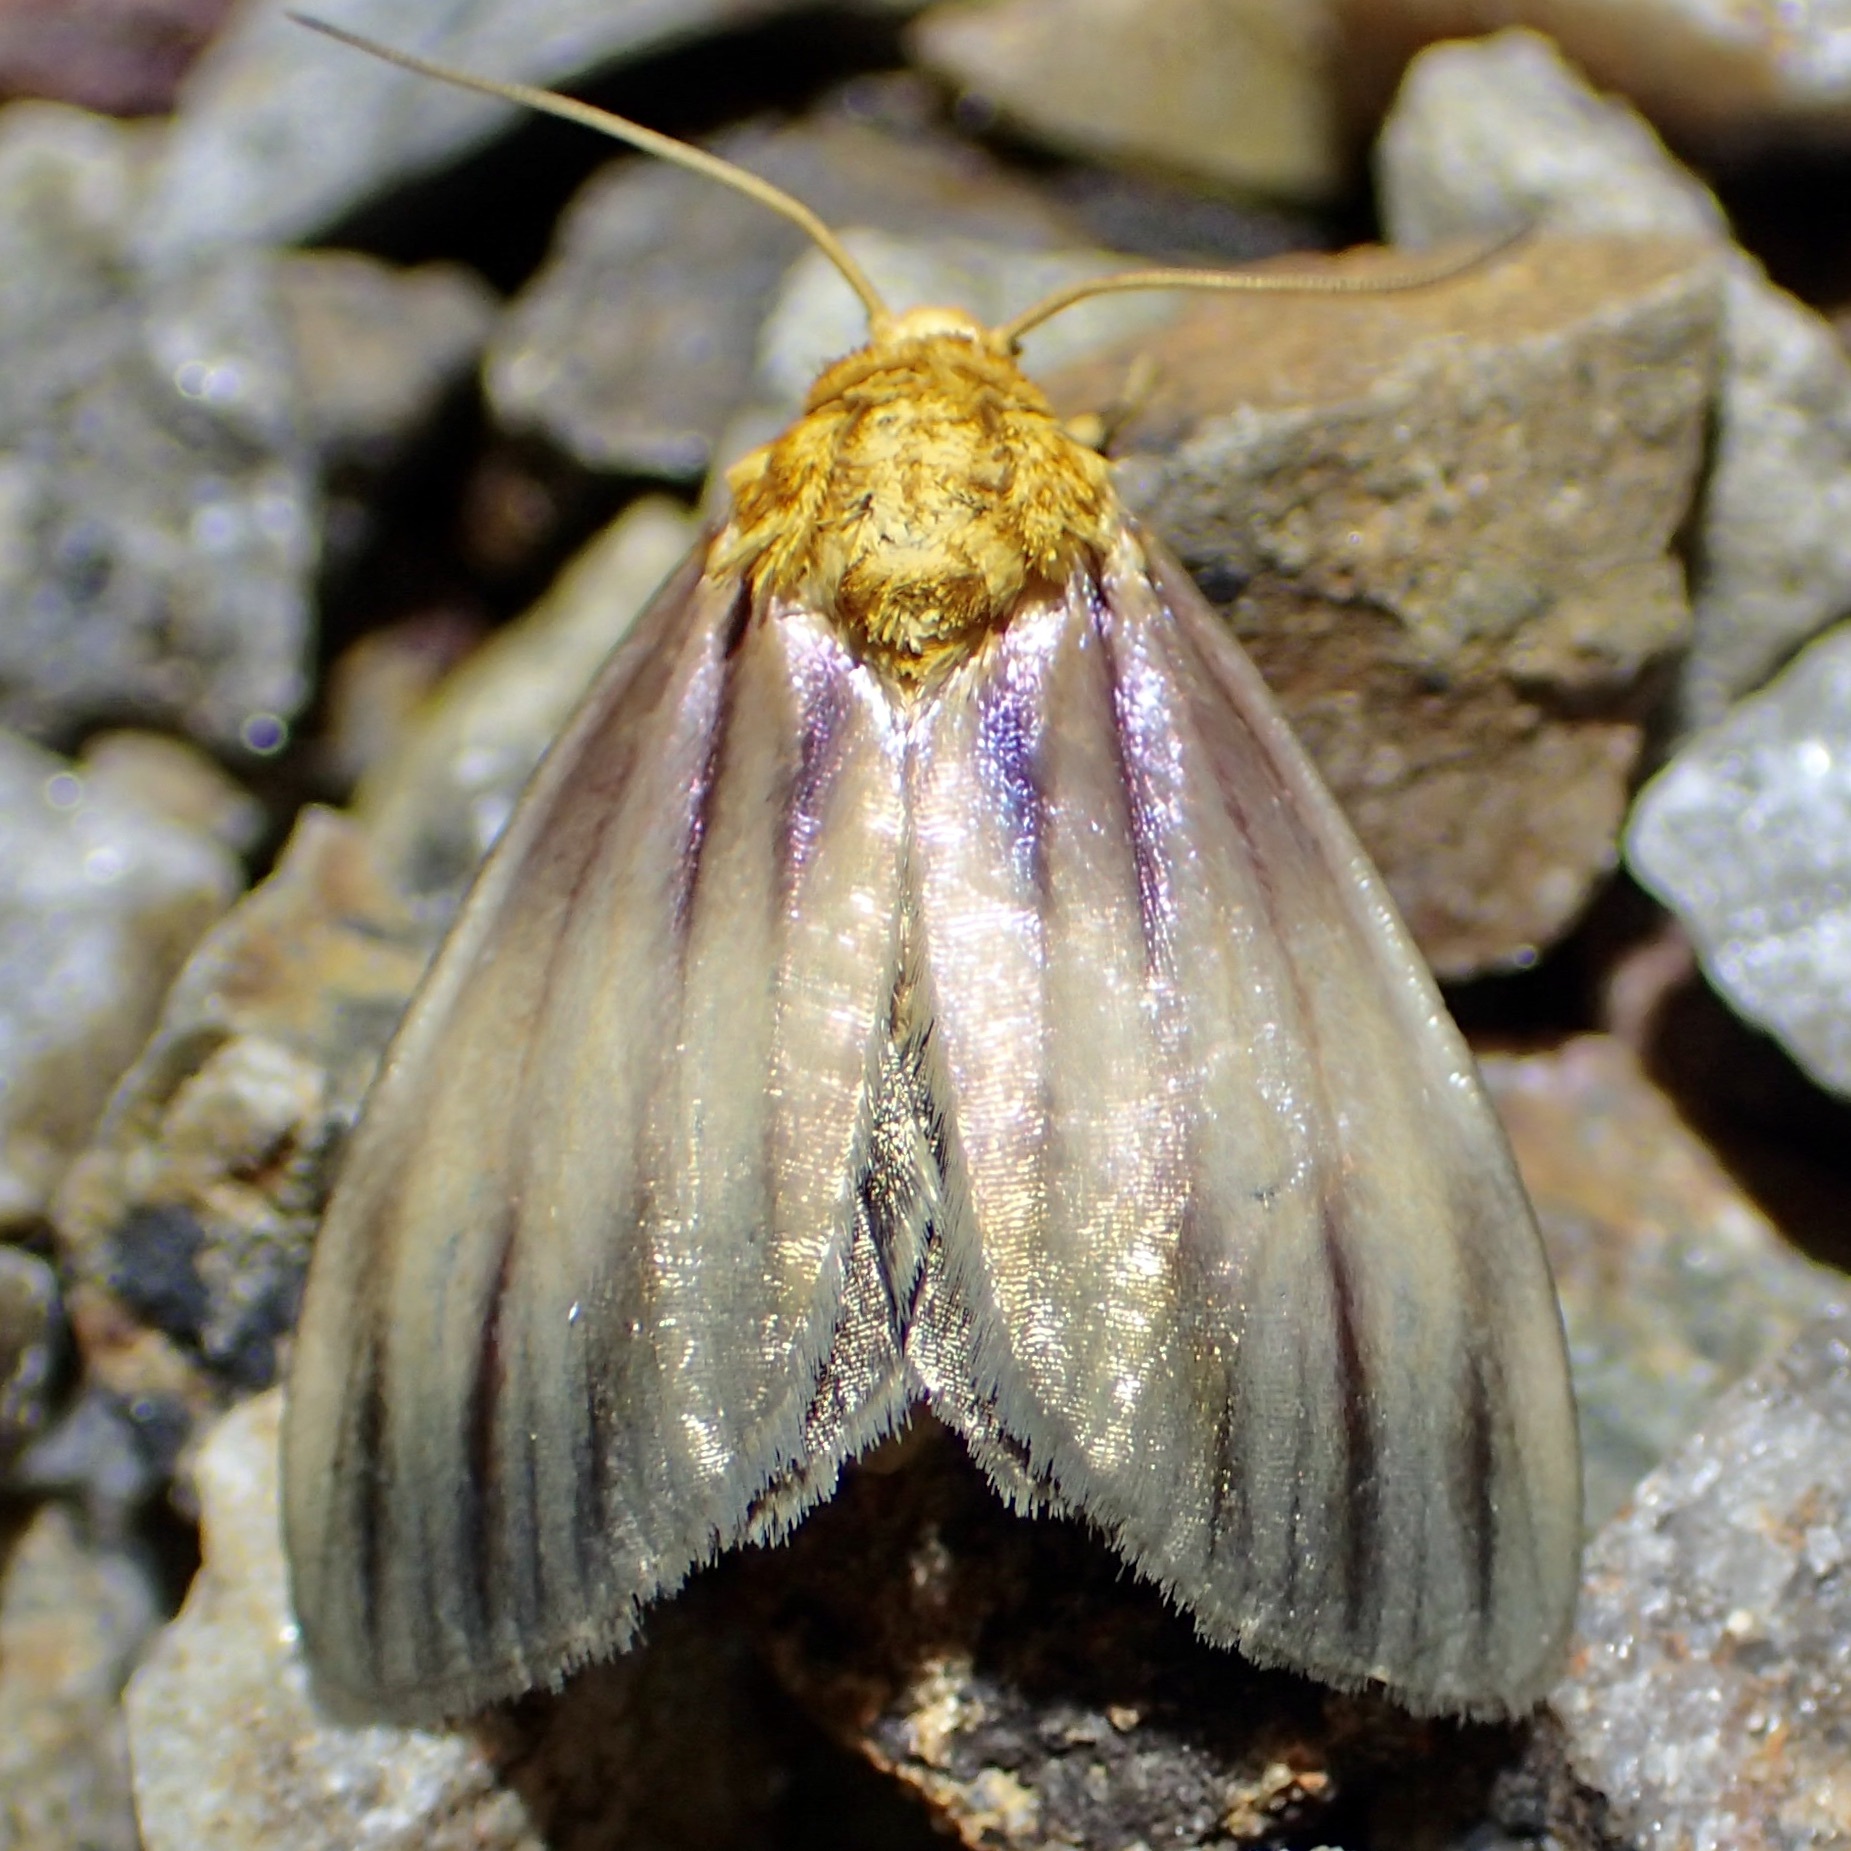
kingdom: Animalia
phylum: Arthropoda
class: Insecta
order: Lepidoptera
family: Noctuidae
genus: Antaplaga
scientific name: Antaplaga plesioglauca
